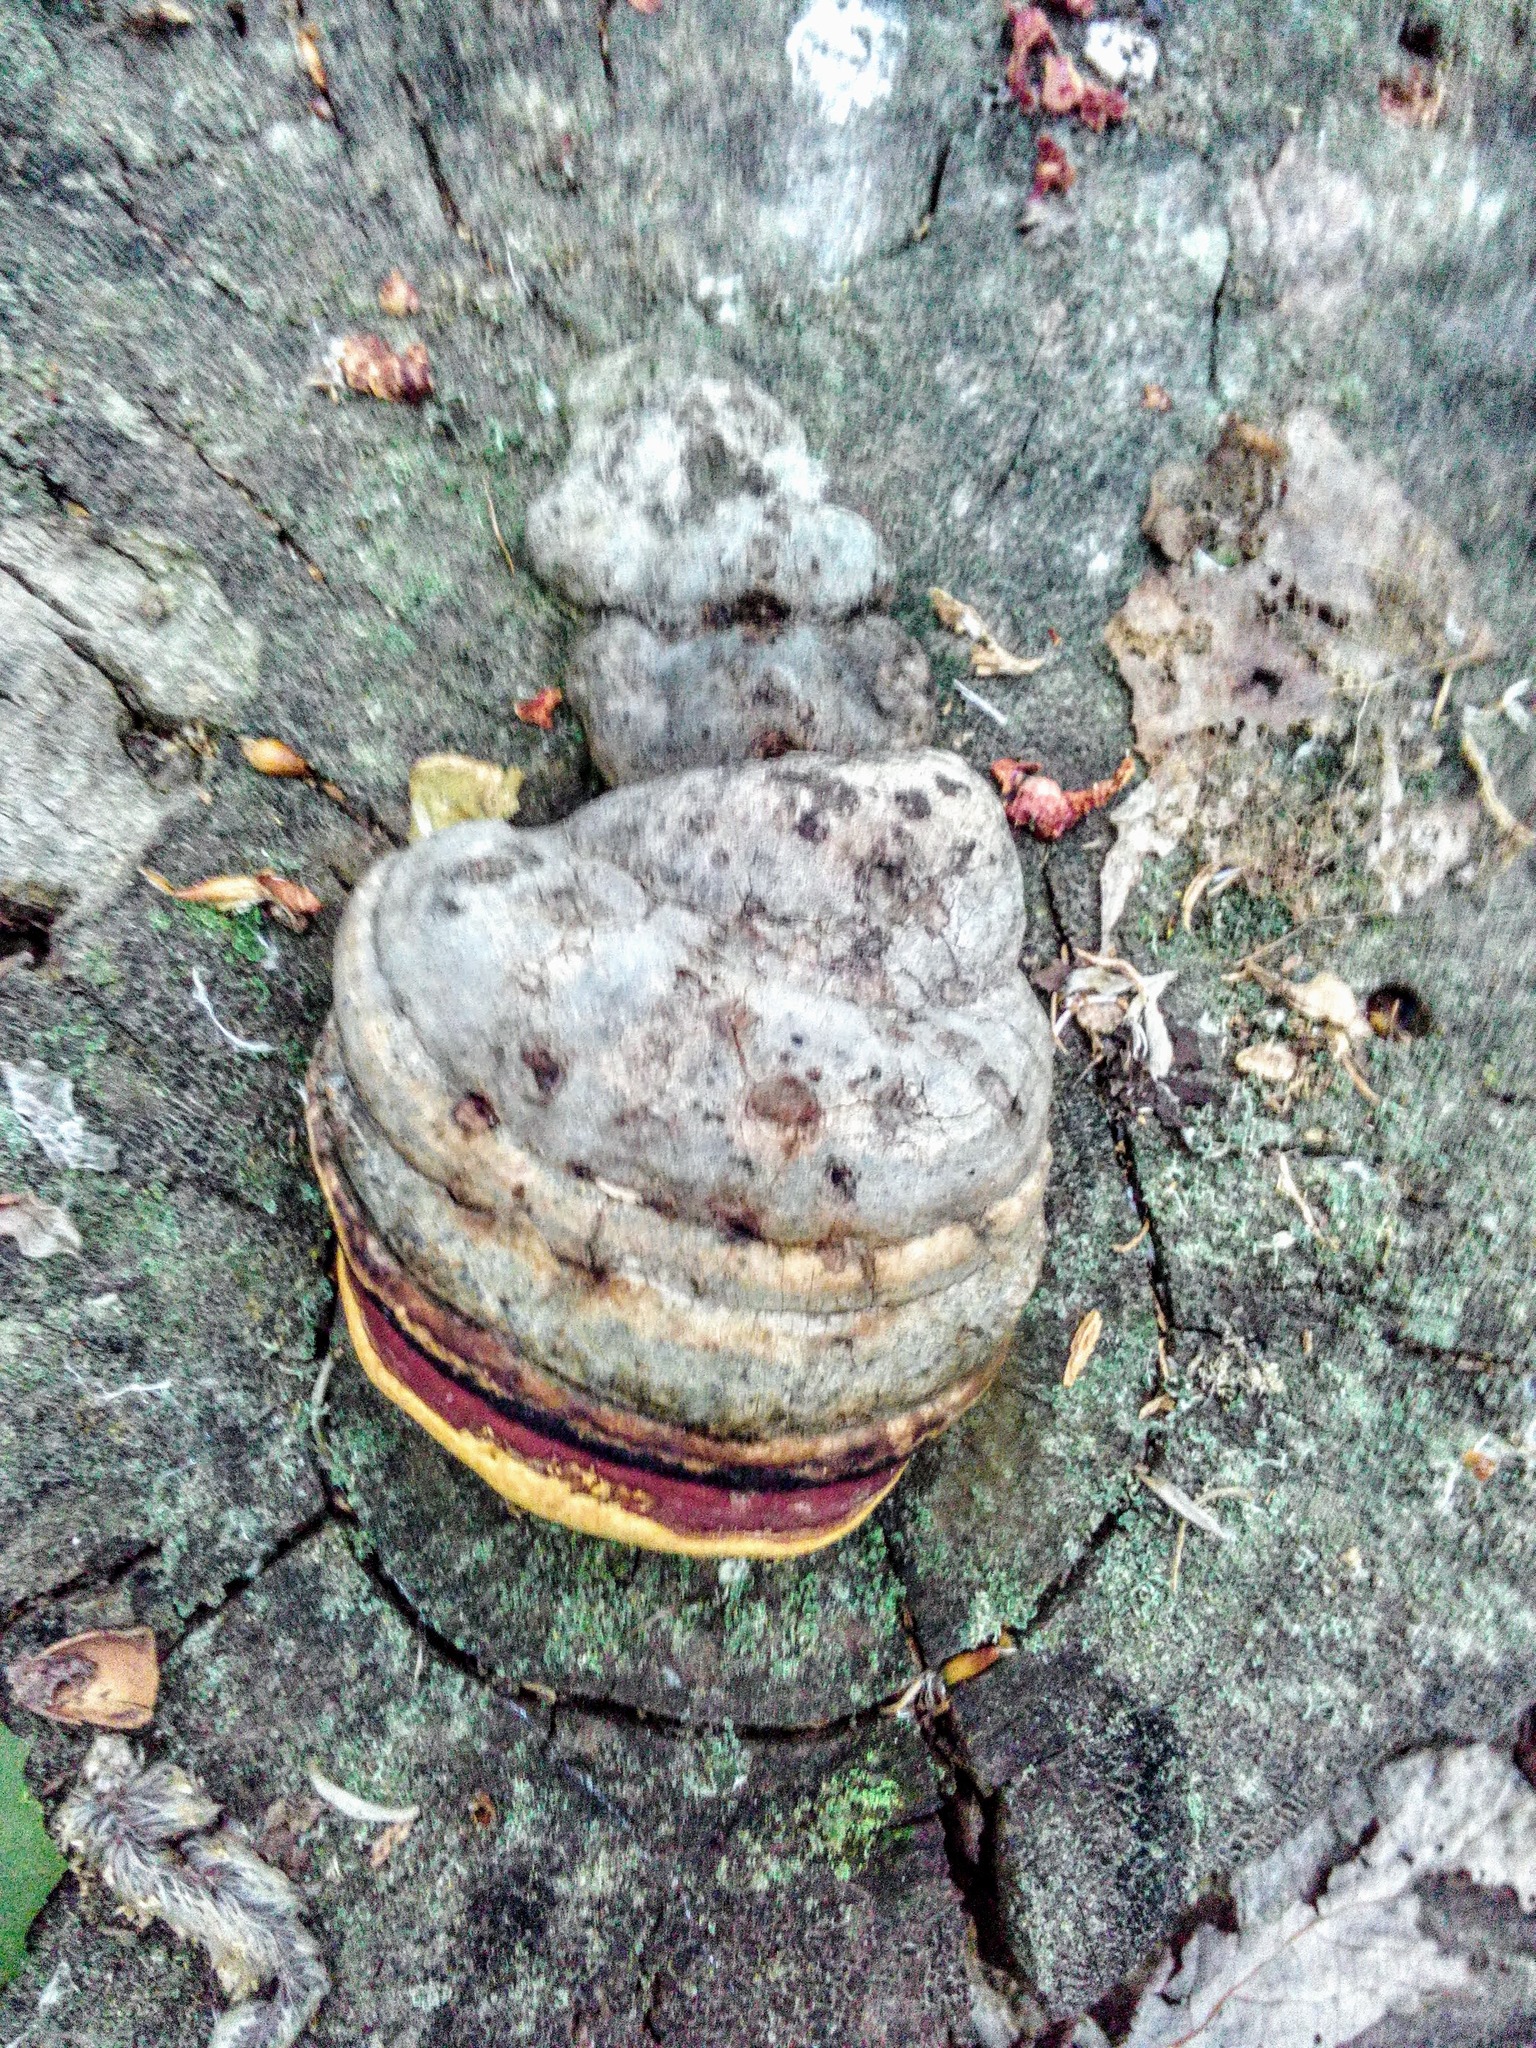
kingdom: Fungi
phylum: Basidiomycota
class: Agaricomycetes
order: Polyporales
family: Fomitopsidaceae
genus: Fomitopsis
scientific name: Fomitopsis pinicola
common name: Red-belted bracket
